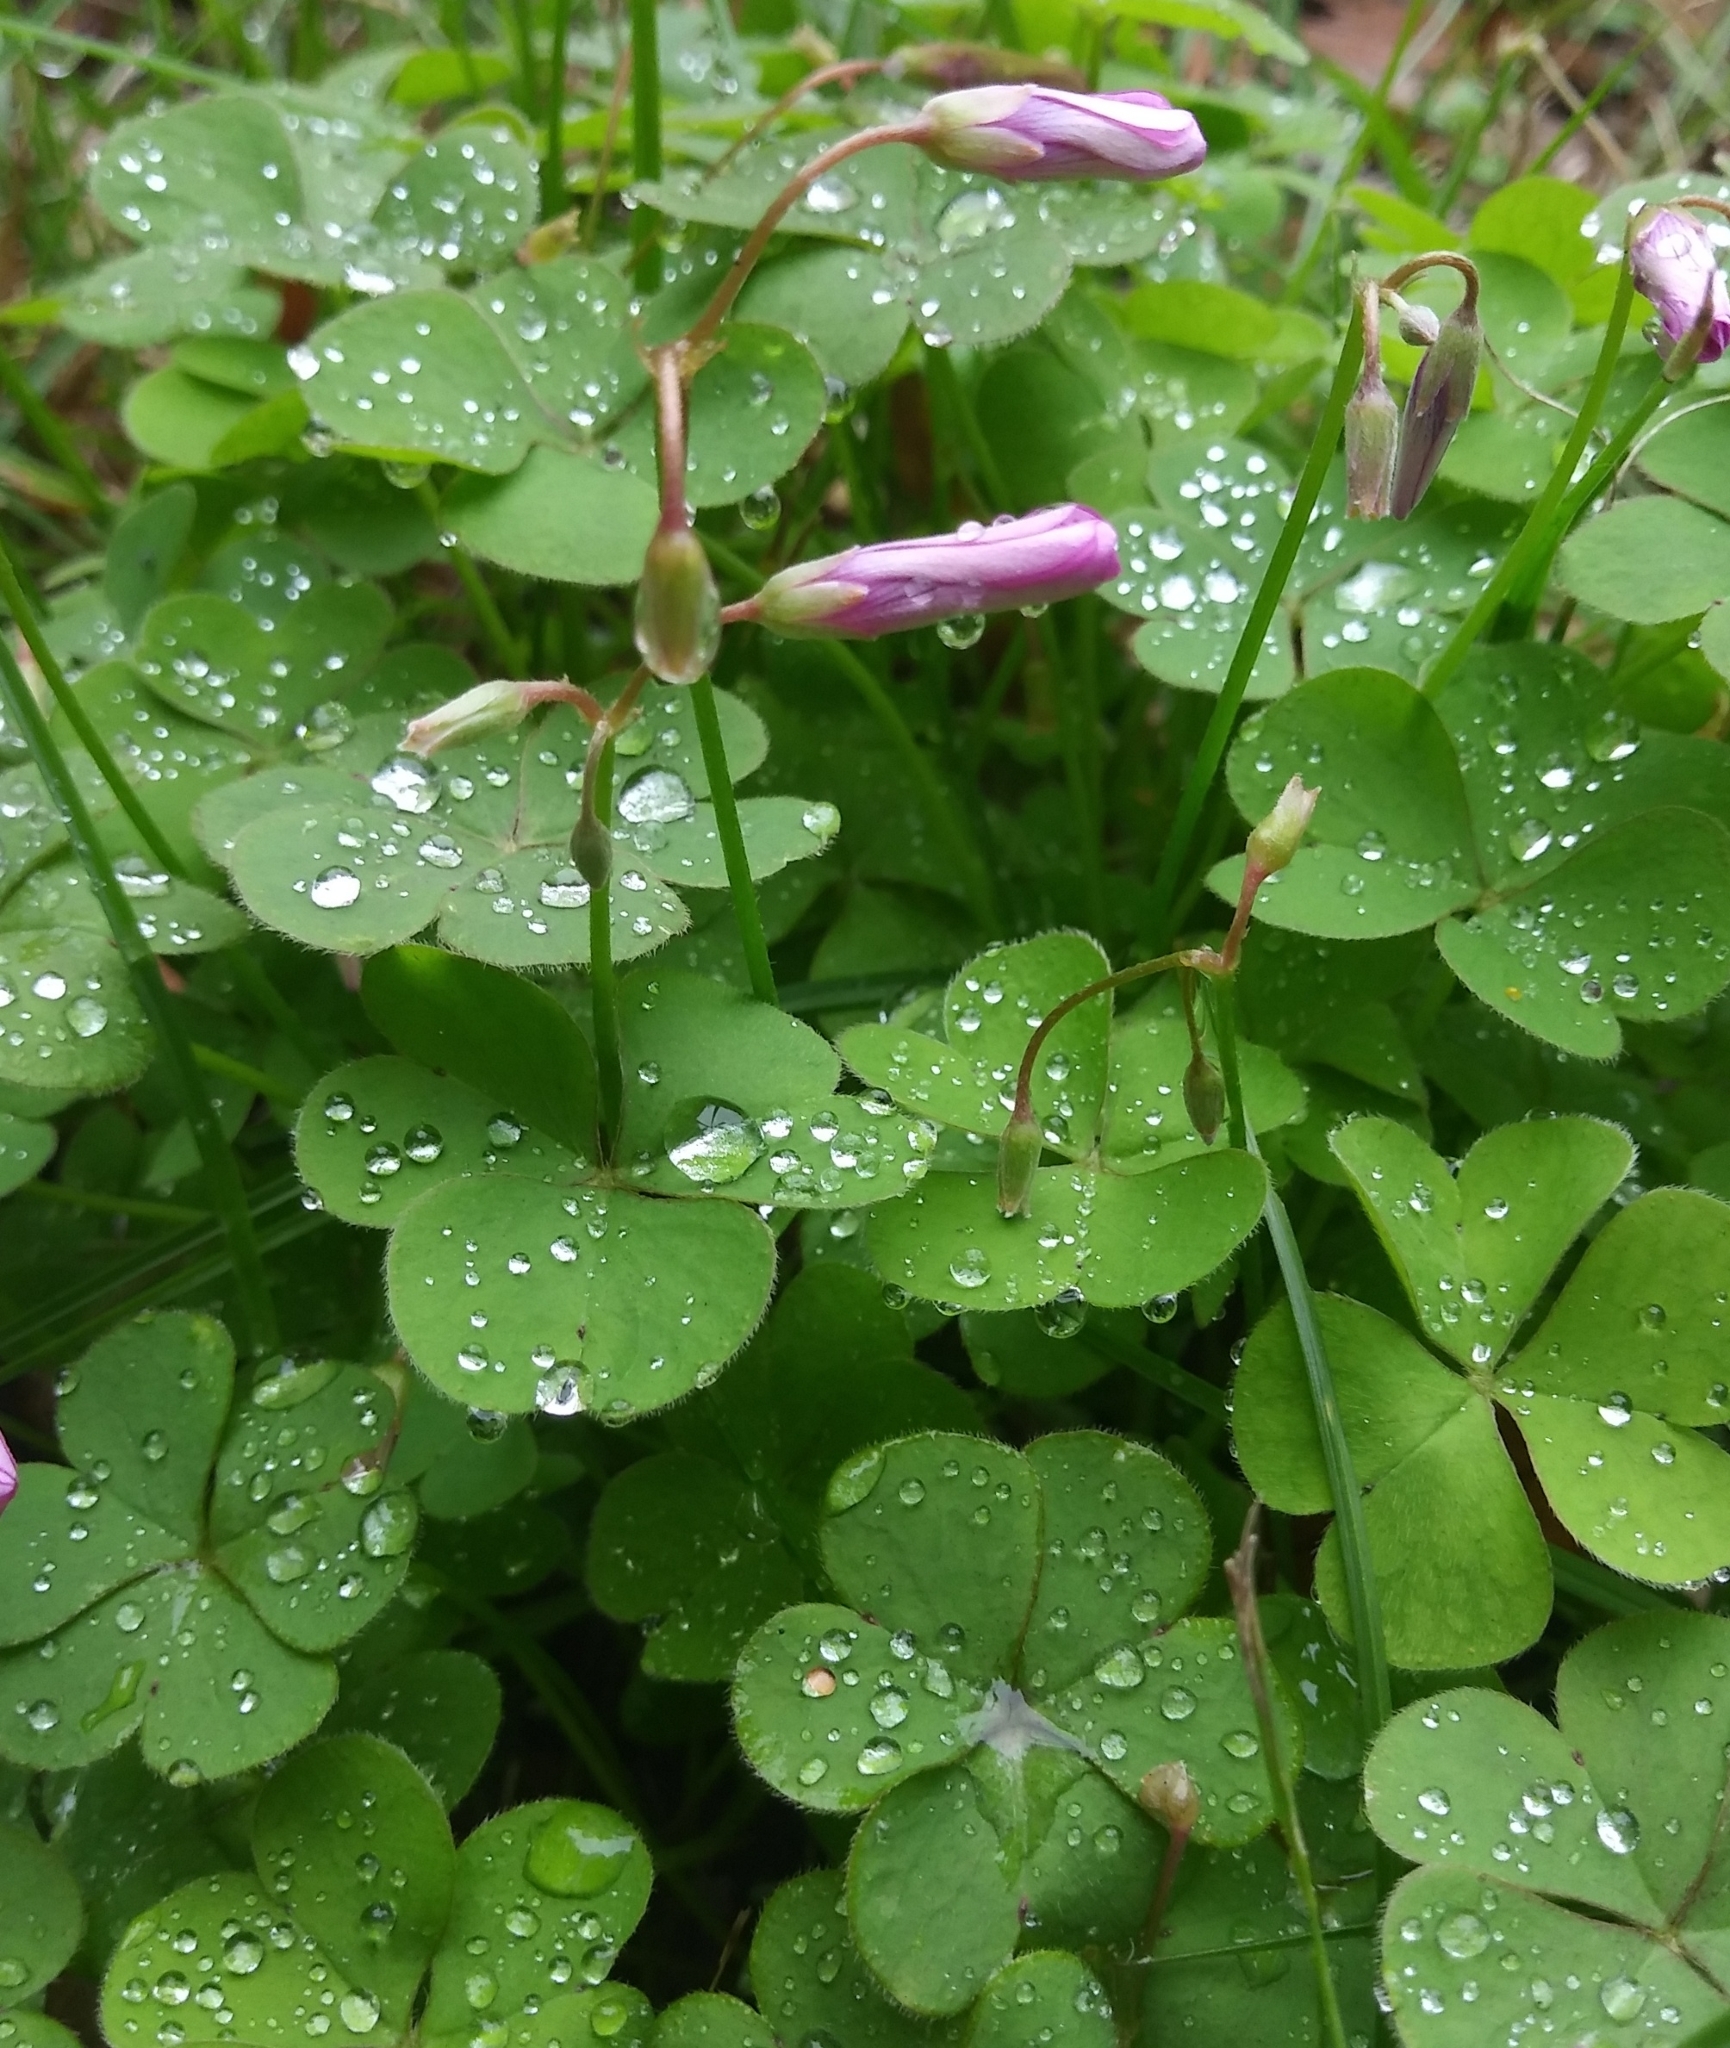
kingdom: Plantae
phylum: Tracheophyta
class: Magnoliopsida
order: Oxalidales
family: Oxalidaceae
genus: Oxalis
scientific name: Oxalis articulata
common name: Pink-sorrel
